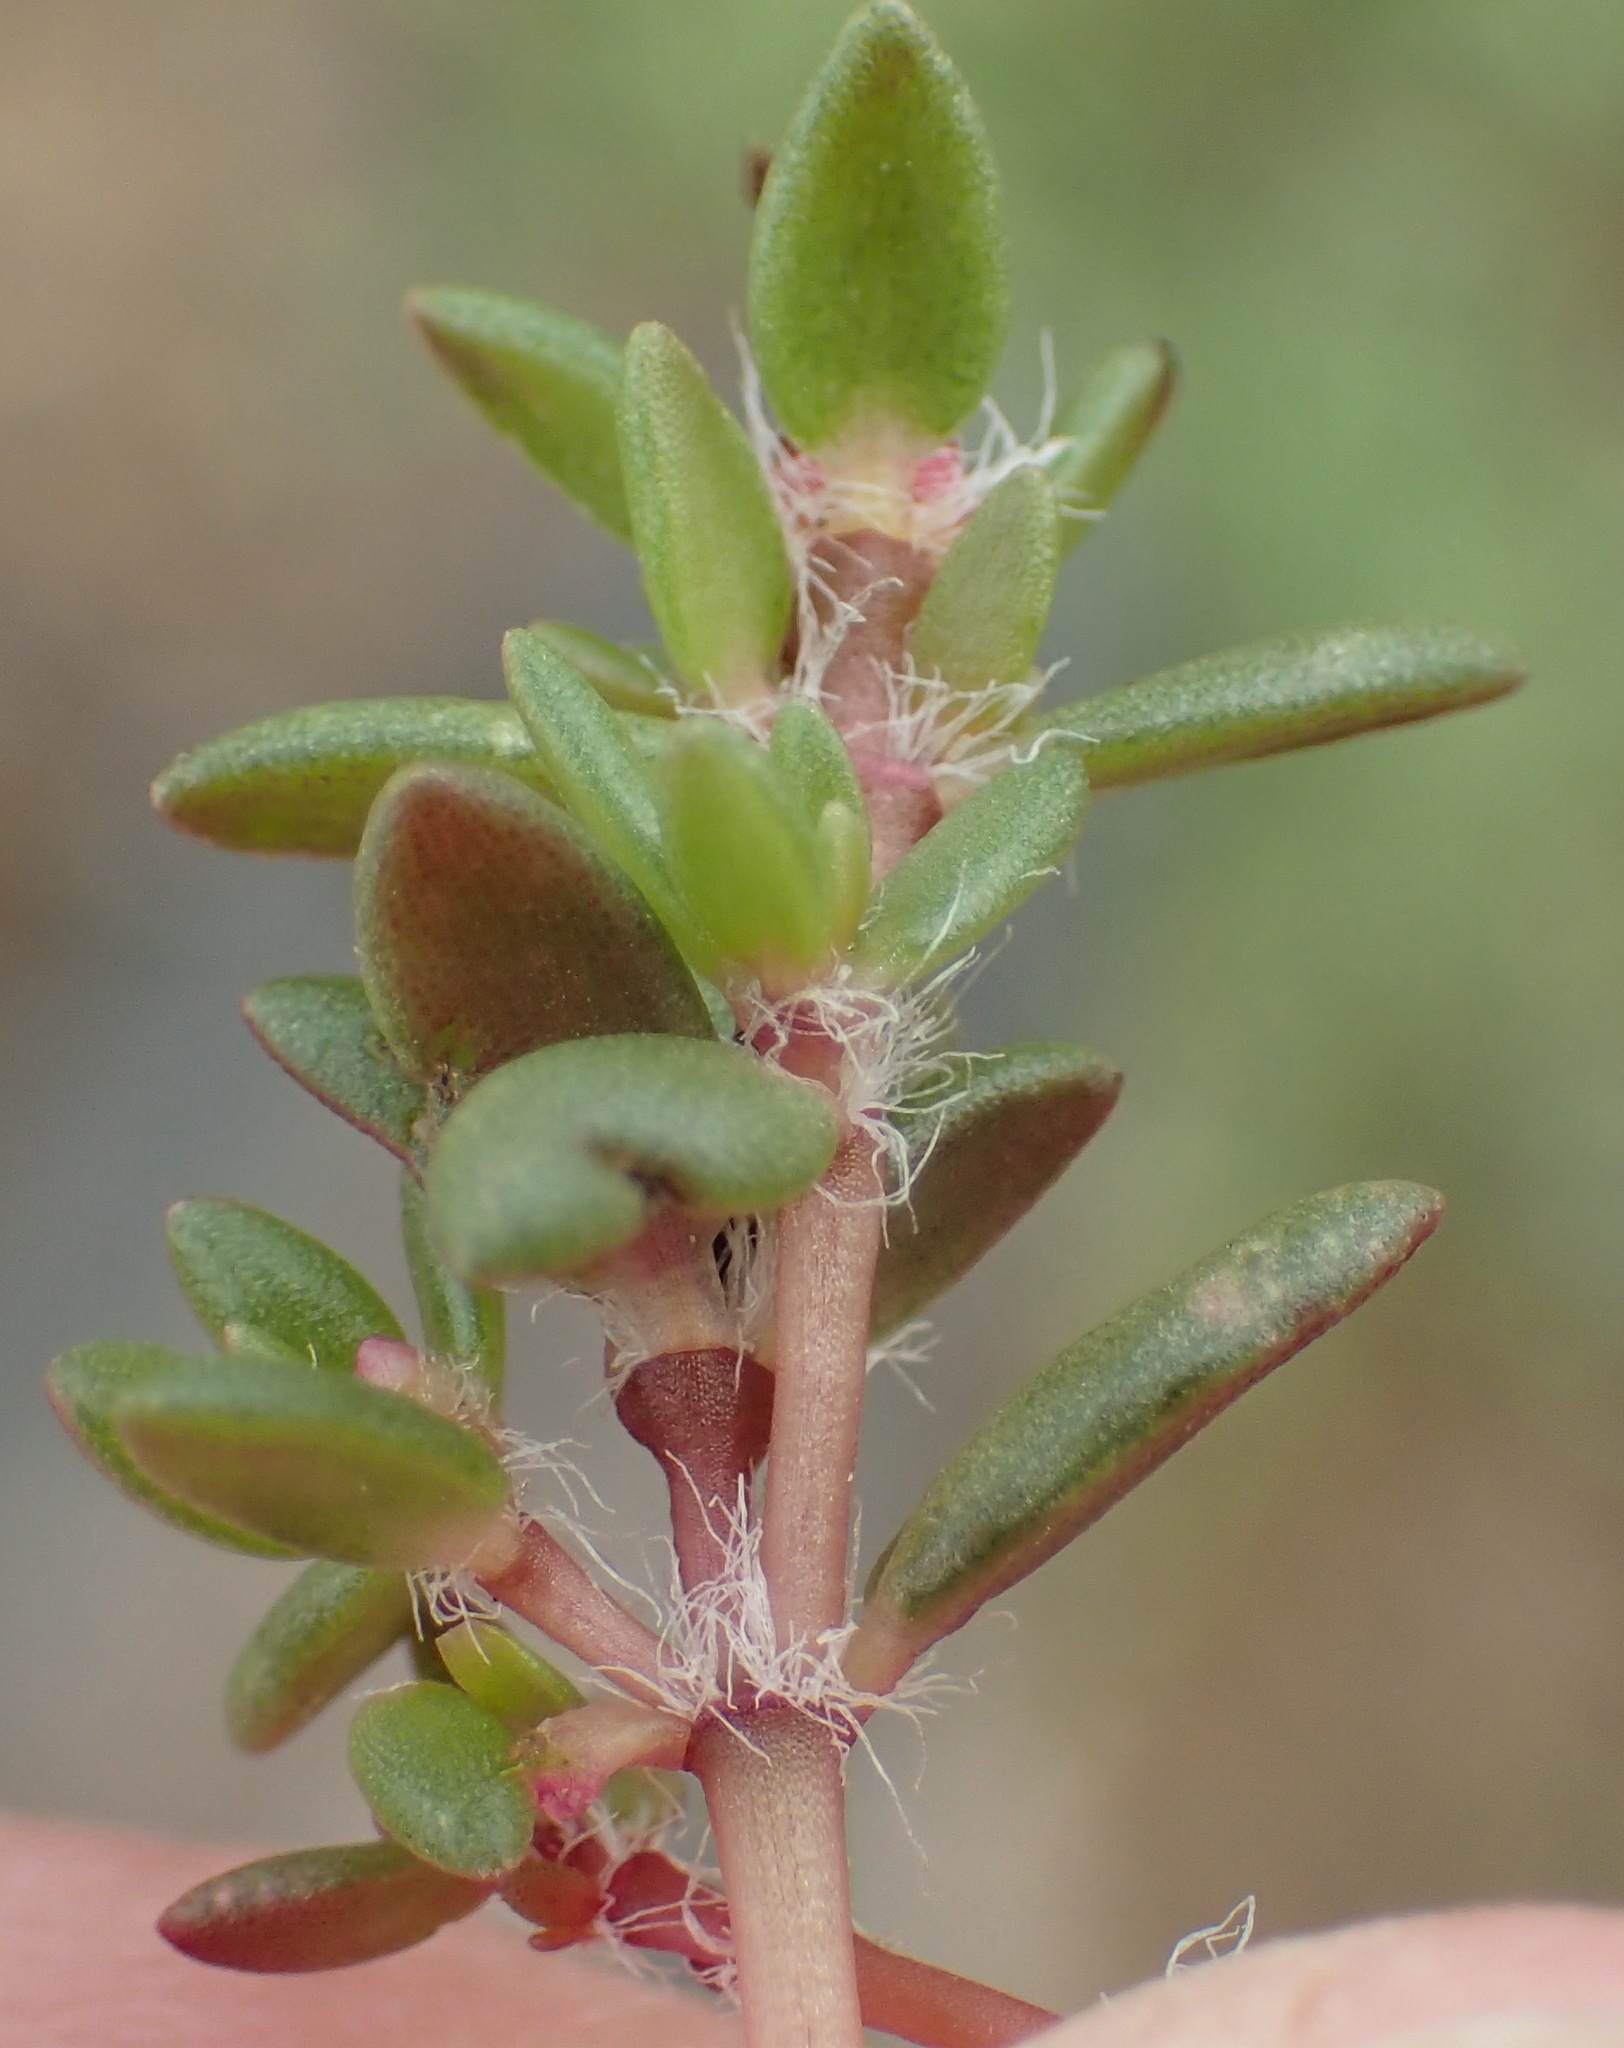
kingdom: Plantae
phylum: Tracheophyta
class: Magnoliopsida
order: Caryophyllales
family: Portulacaceae
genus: Portulaca
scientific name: Portulaca quadrifida
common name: Chickenweed
